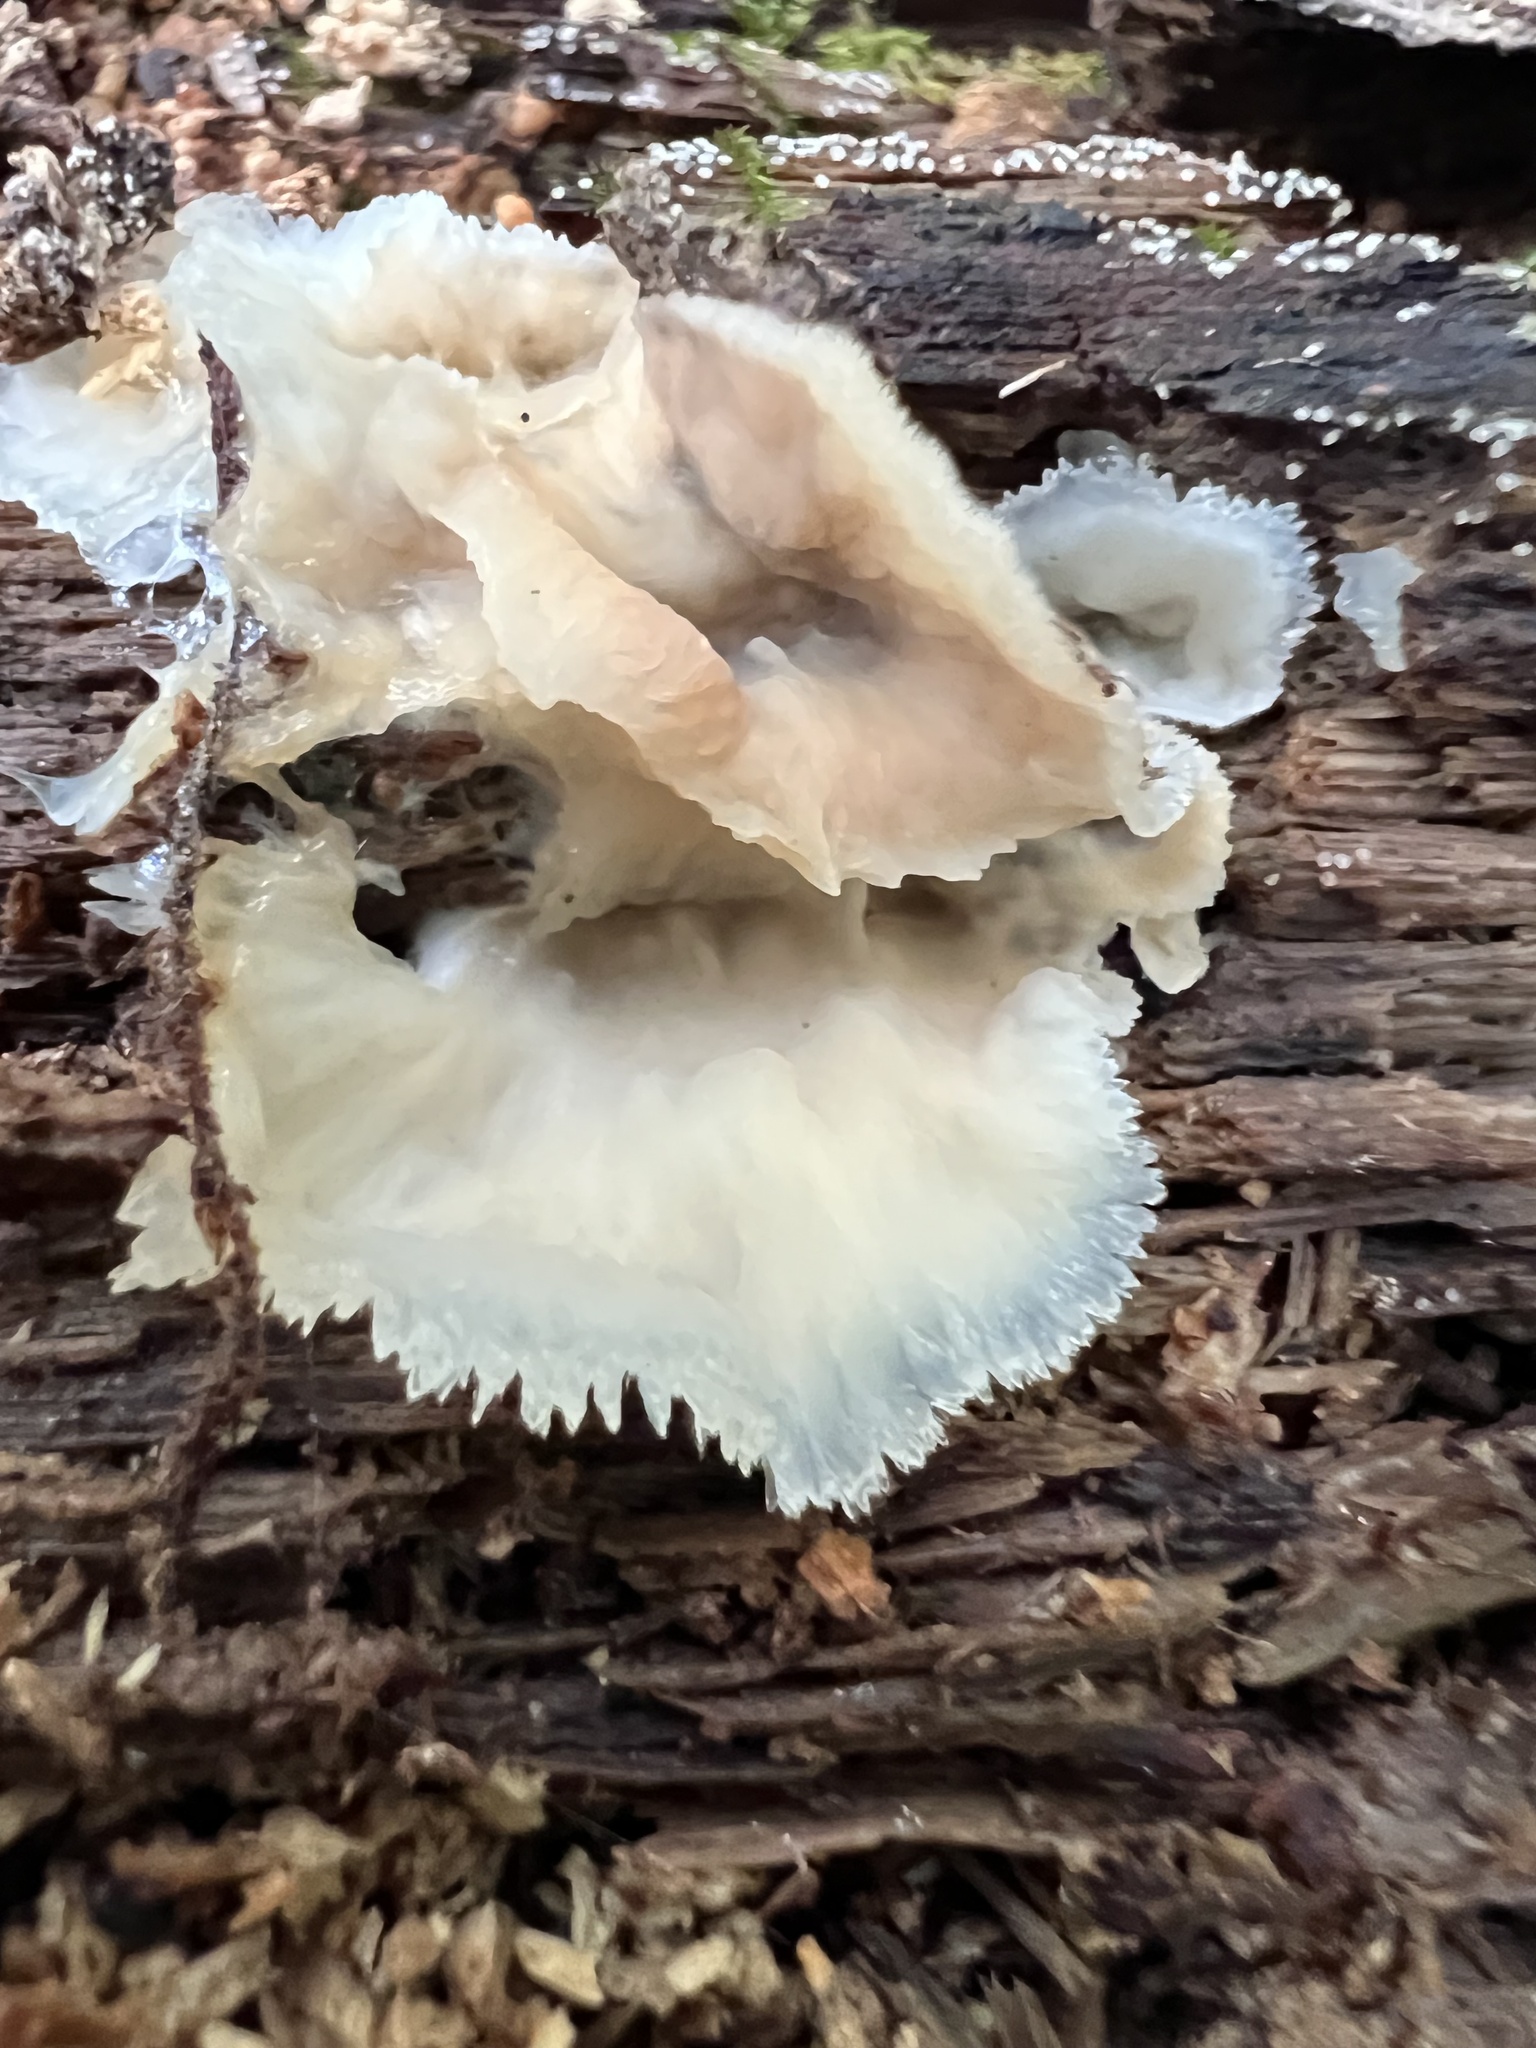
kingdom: Fungi
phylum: Basidiomycota
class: Agaricomycetes
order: Polyporales
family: Meruliaceae
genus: Phlebia
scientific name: Phlebia tremellosa
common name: Jelly rot
